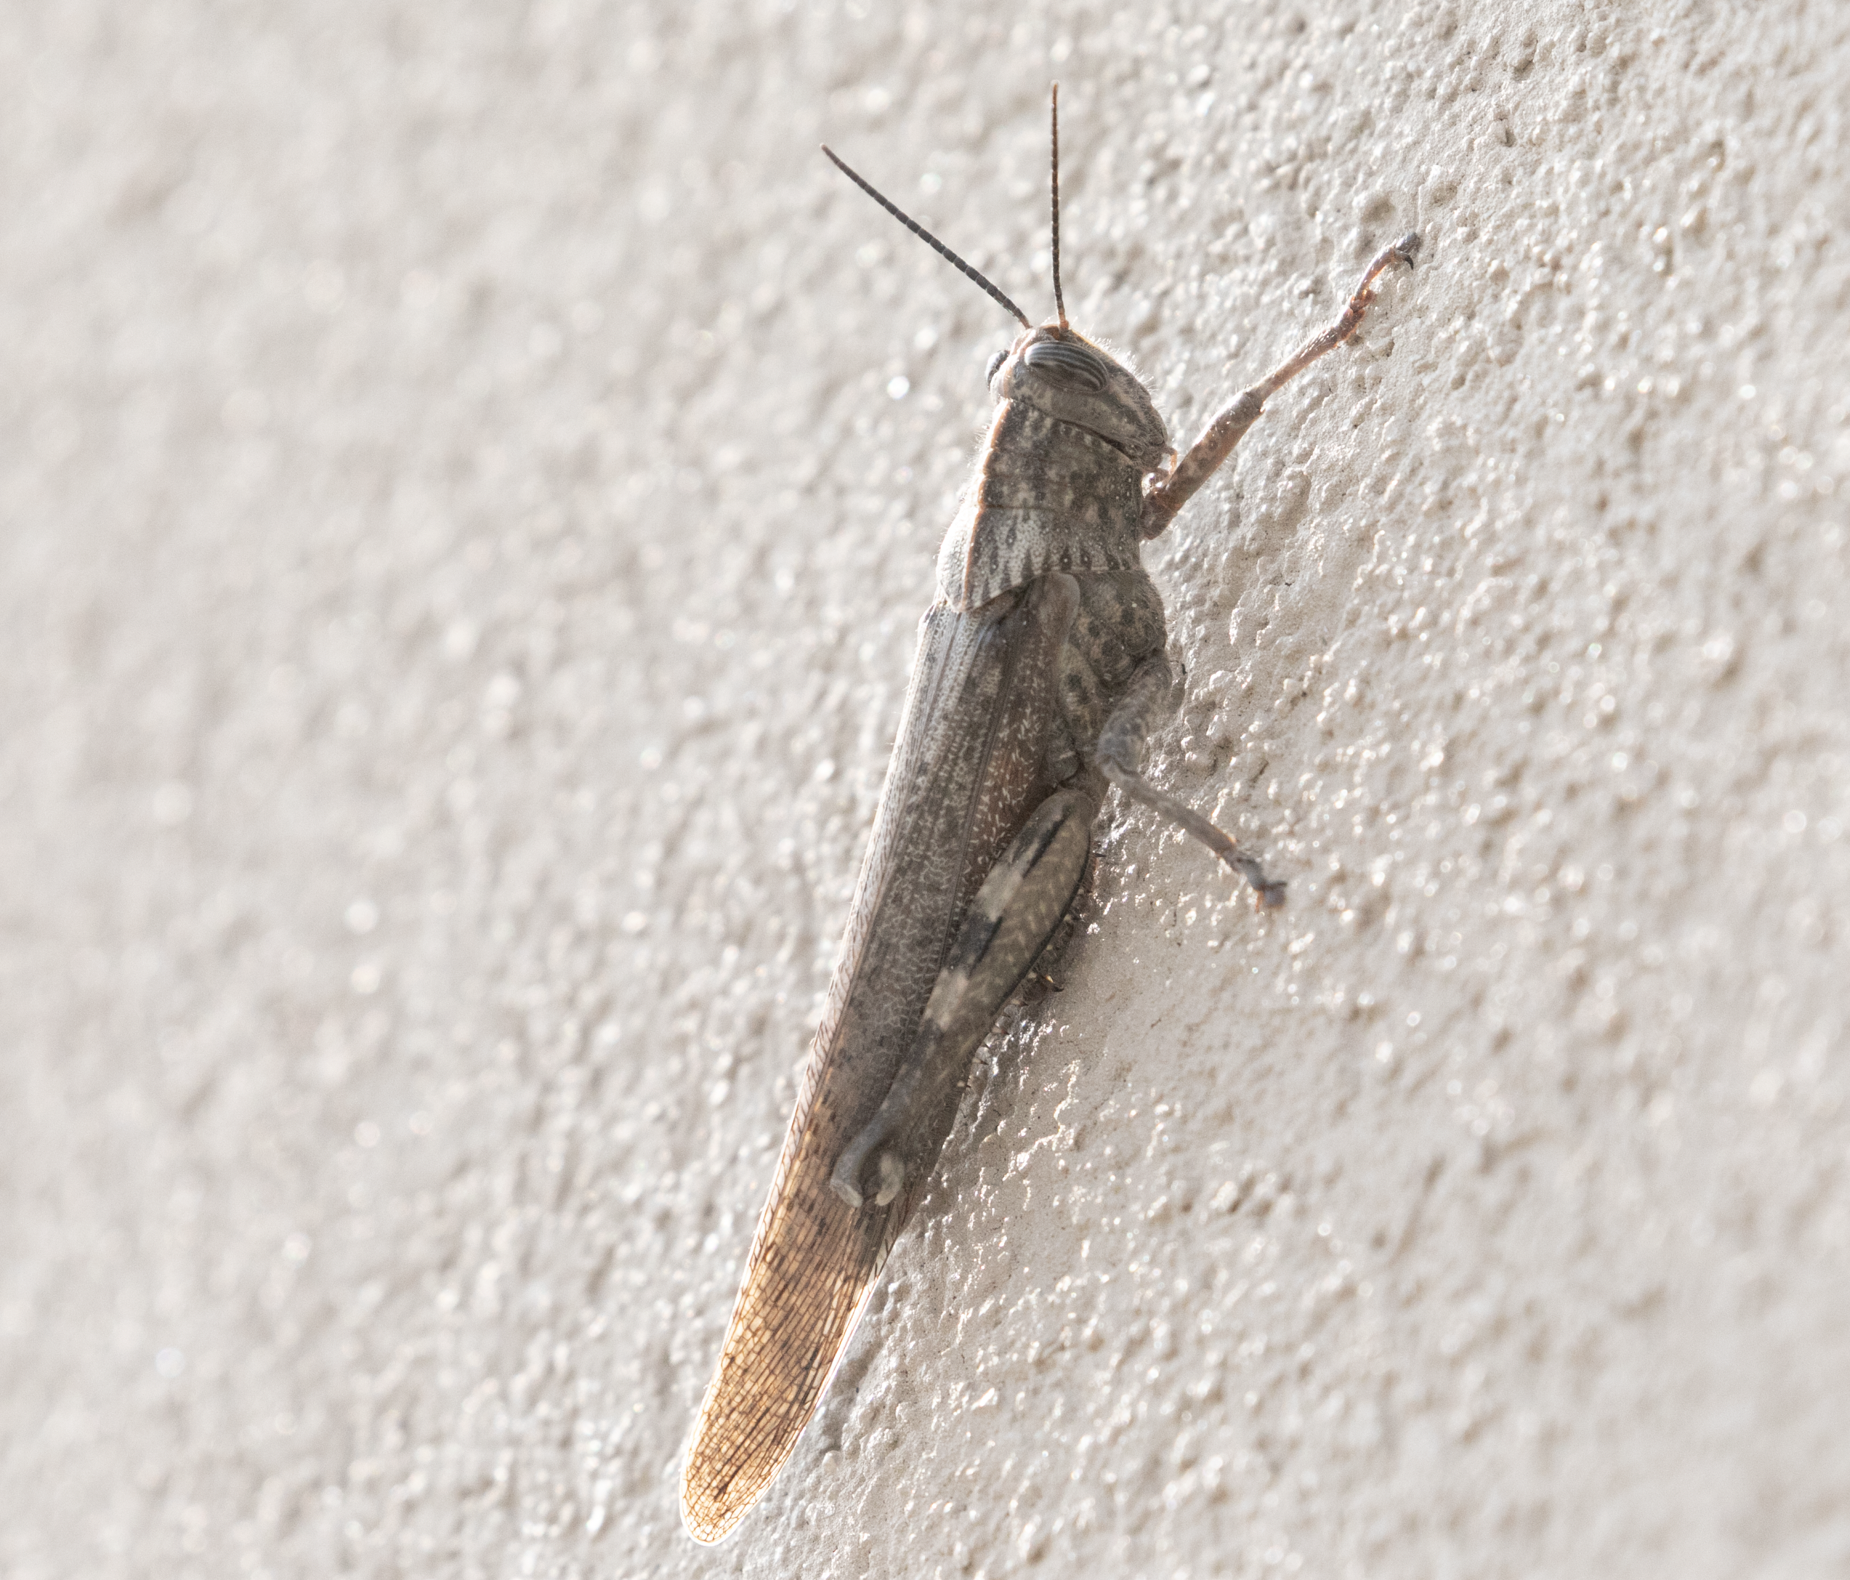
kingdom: Animalia
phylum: Arthropoda
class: Insecta
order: Orthoptera
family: Acrididae
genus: Anacridium
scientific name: Anacridium aegyptium
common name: Egyptian grasshopper
